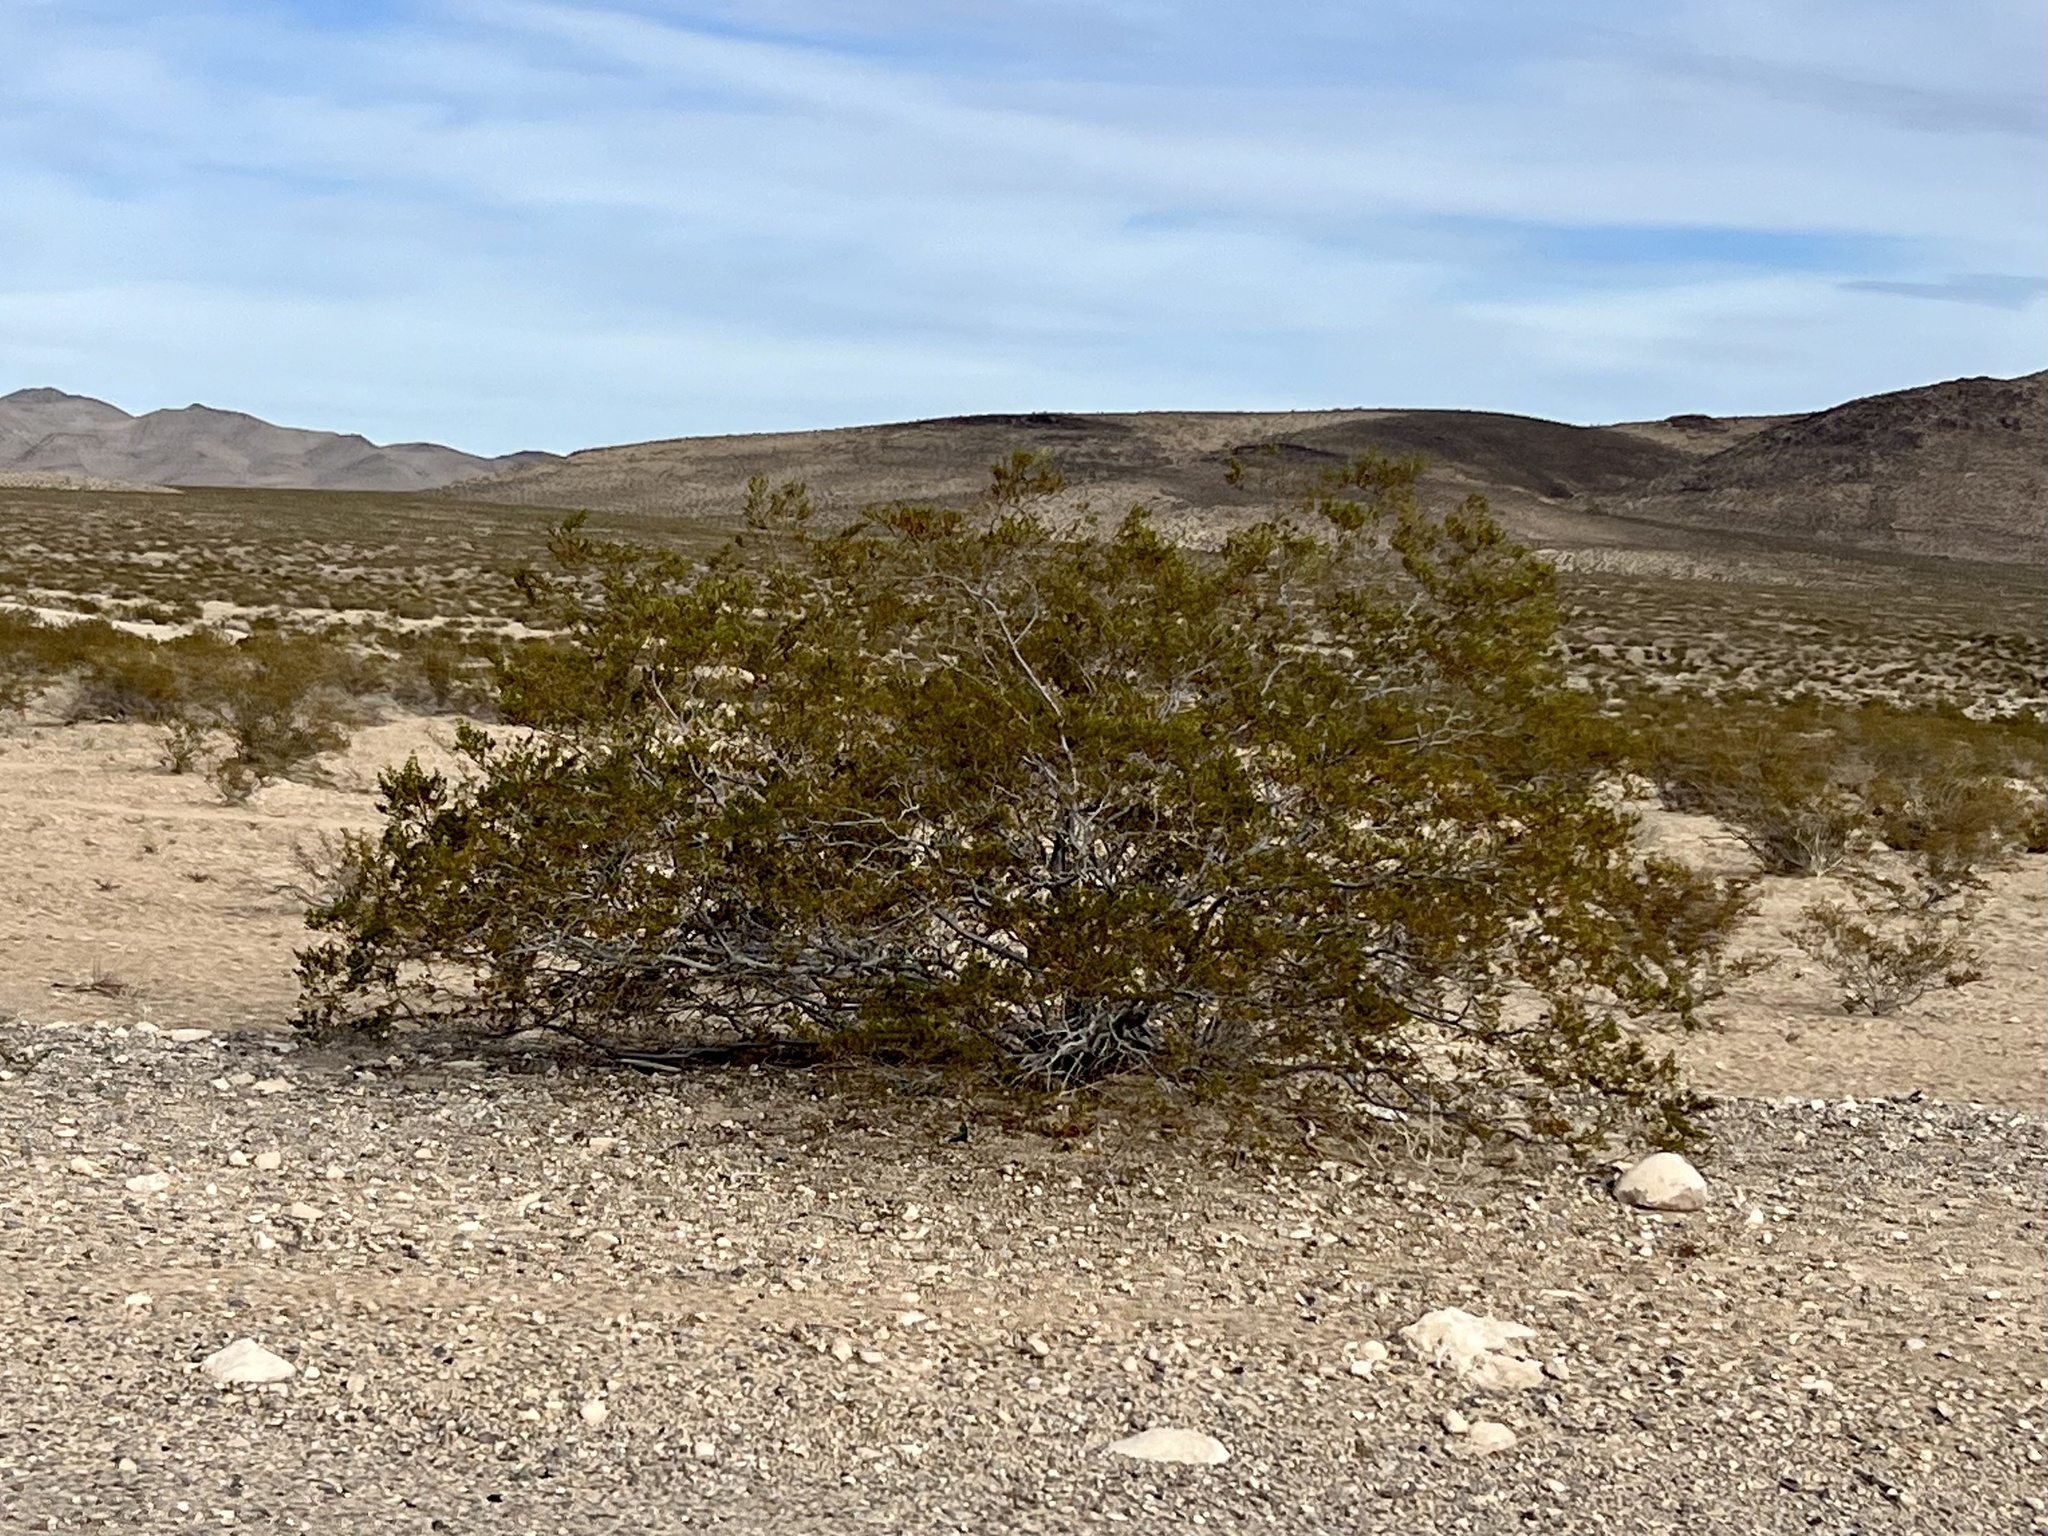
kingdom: Plantae
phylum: Tracheophyta
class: Magnoliopsida
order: Zygophyllales
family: Zygophyllaceae
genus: Larrea
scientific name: Larrea tridentata
